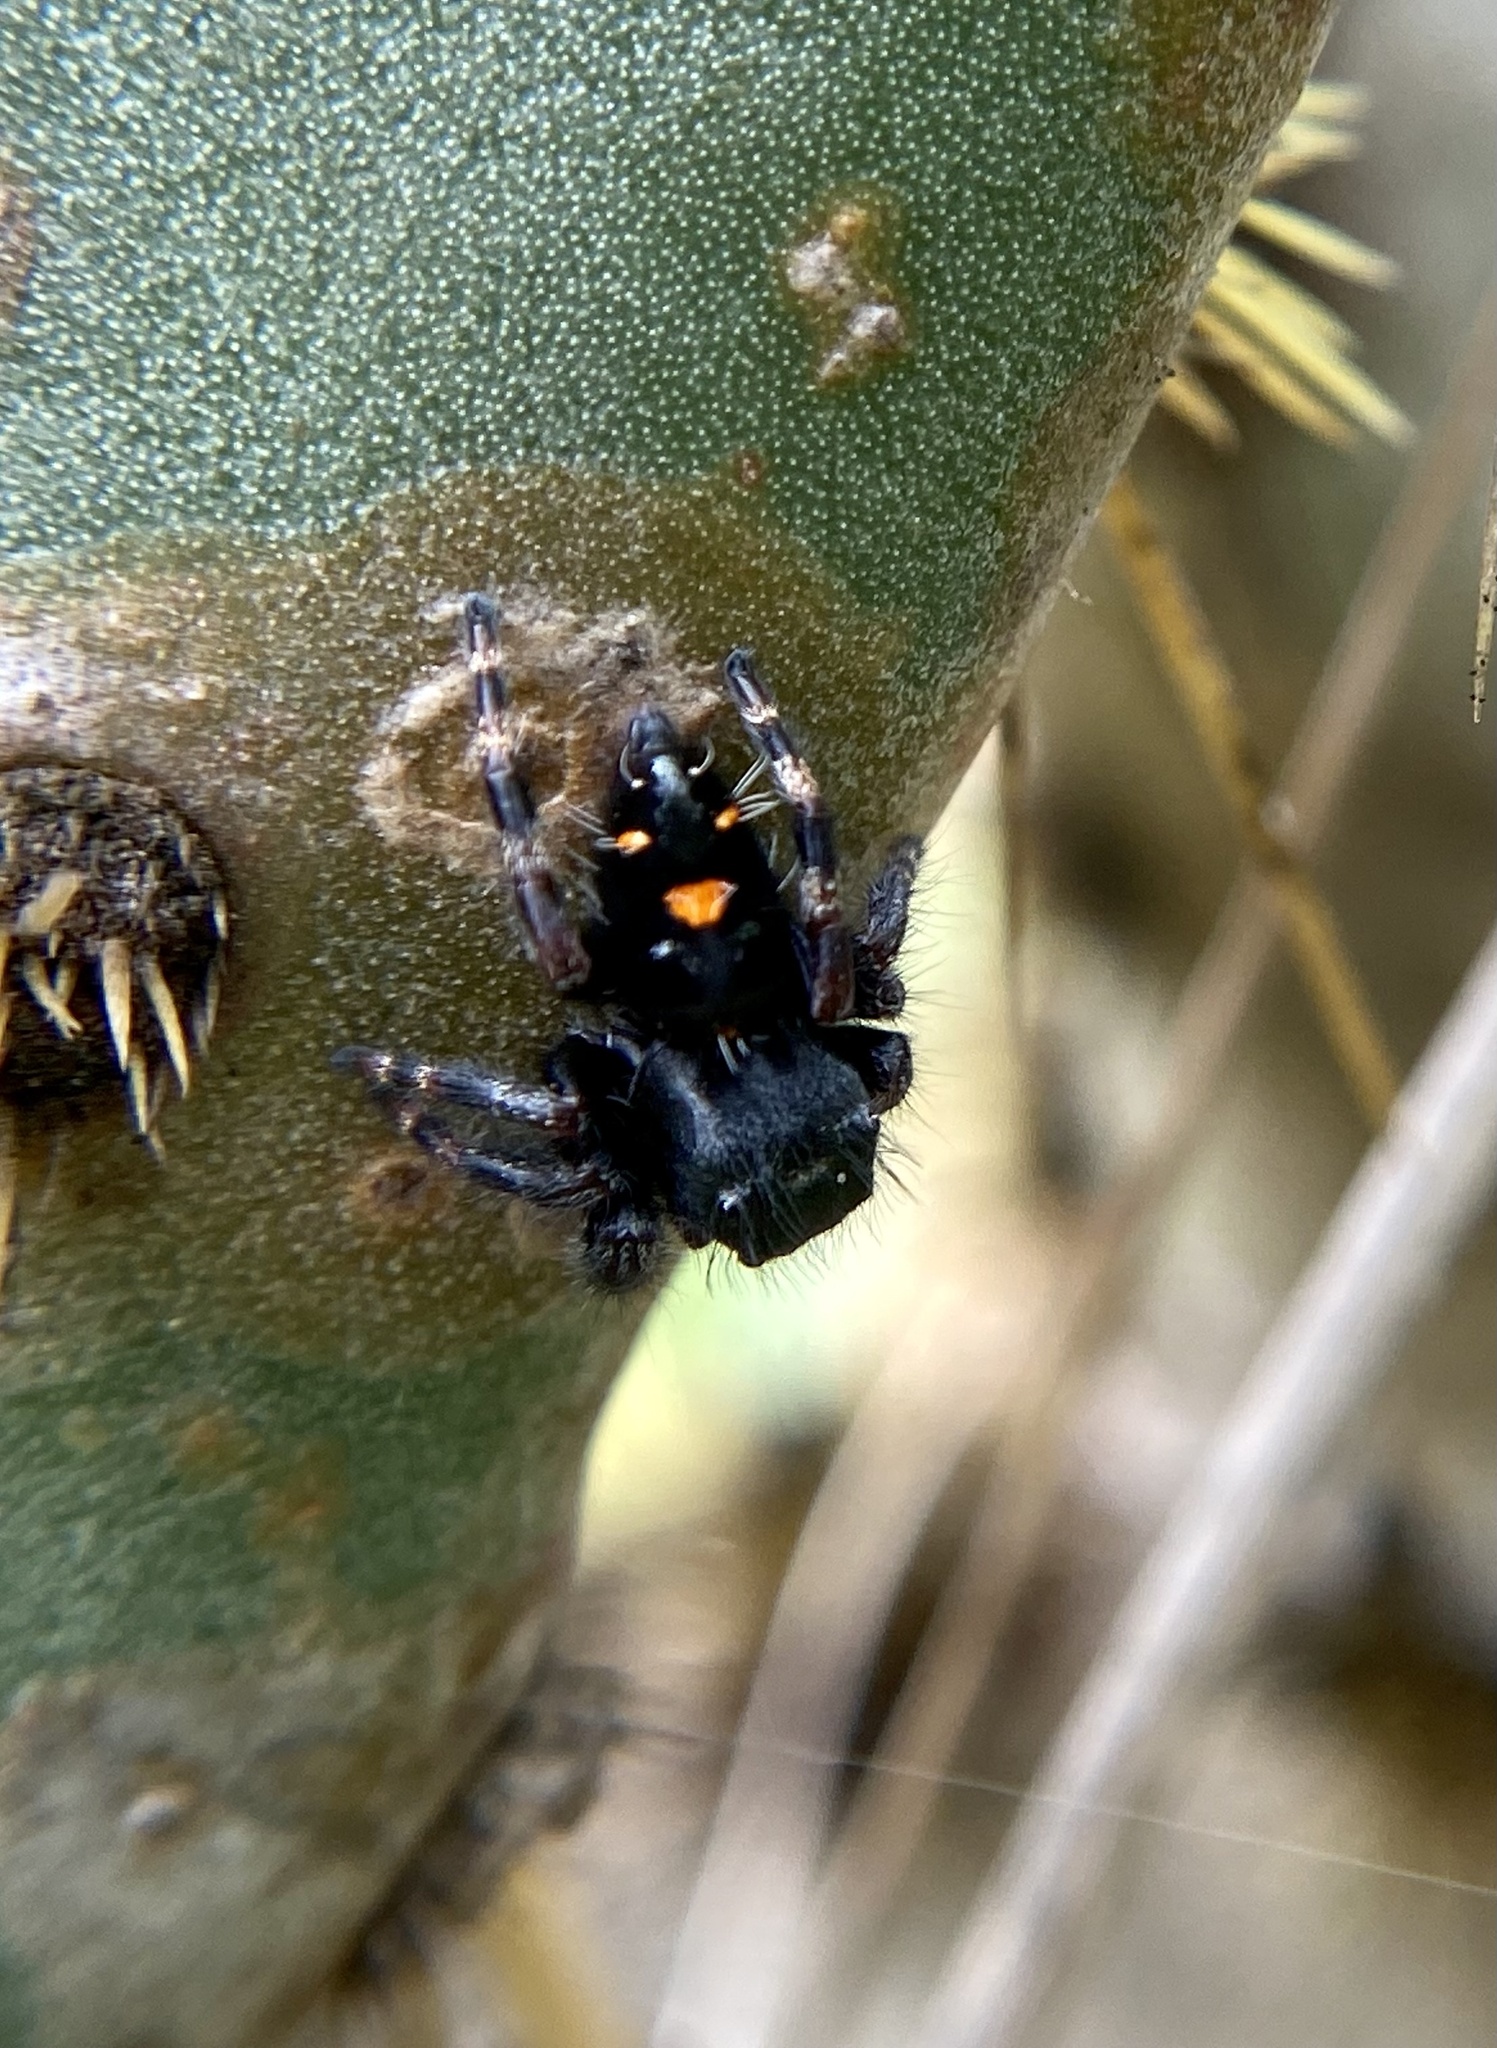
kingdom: Animalia
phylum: Arthropoda
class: Arachnida
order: Araneae
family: Salticidae
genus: Phidippus
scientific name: Phidippus audax
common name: Bold jumper
